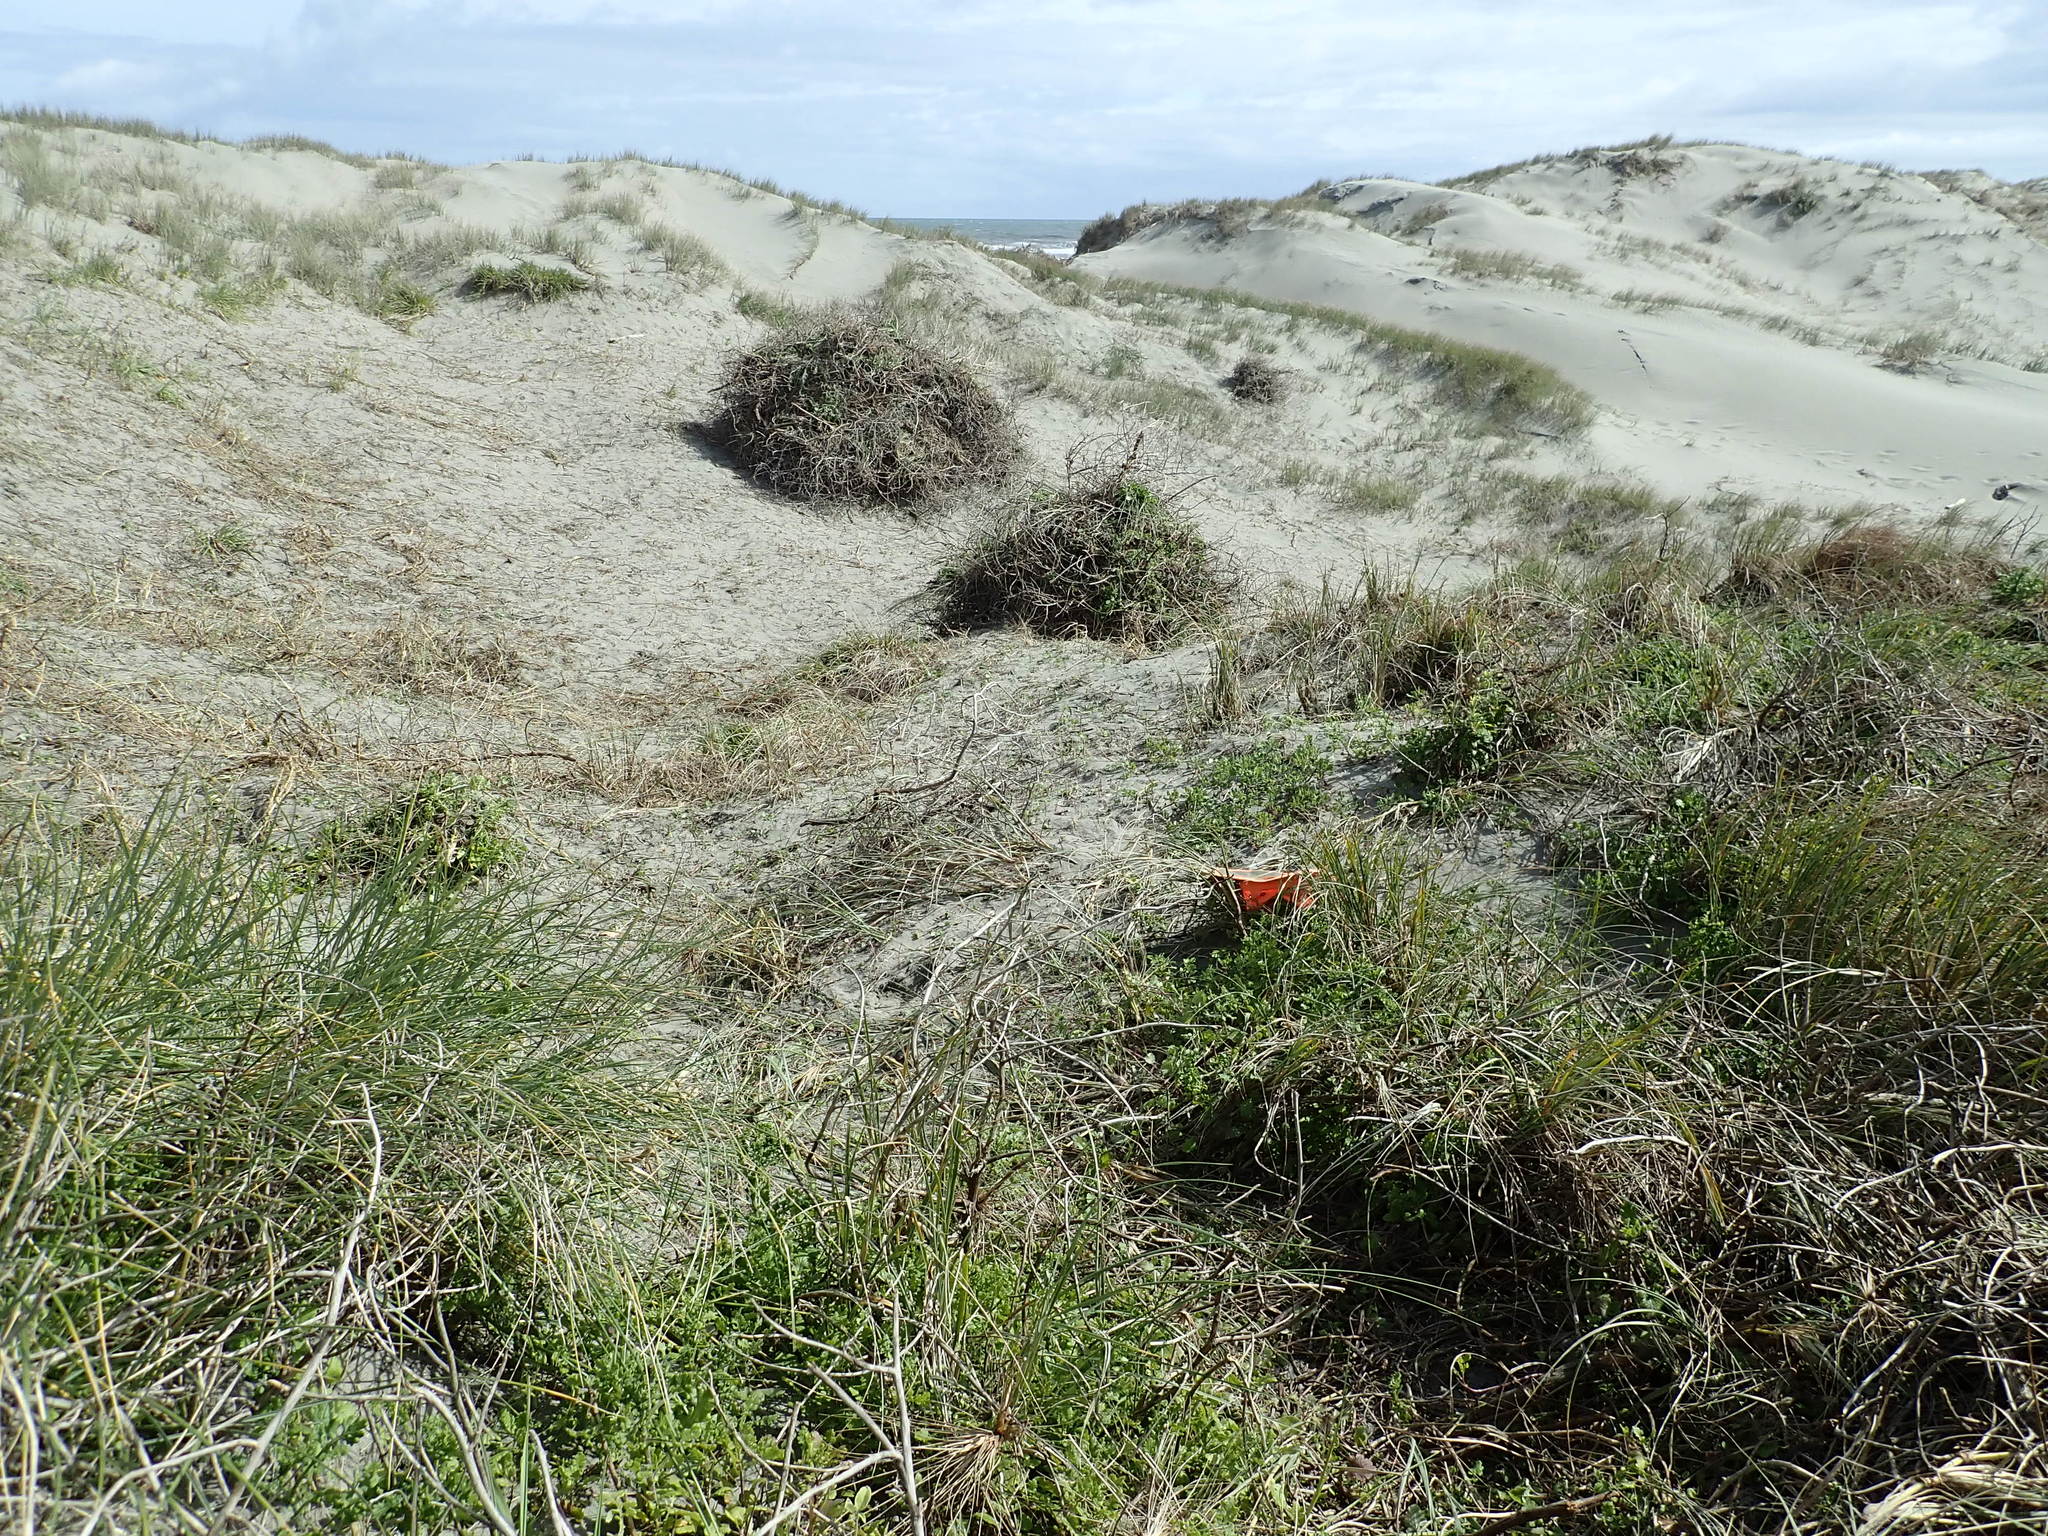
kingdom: Plantae
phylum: Tracheophyta
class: Magnoliopsida
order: Asterales
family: Asteraceae
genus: Osteospermum
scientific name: Osteospermum moniliferum
